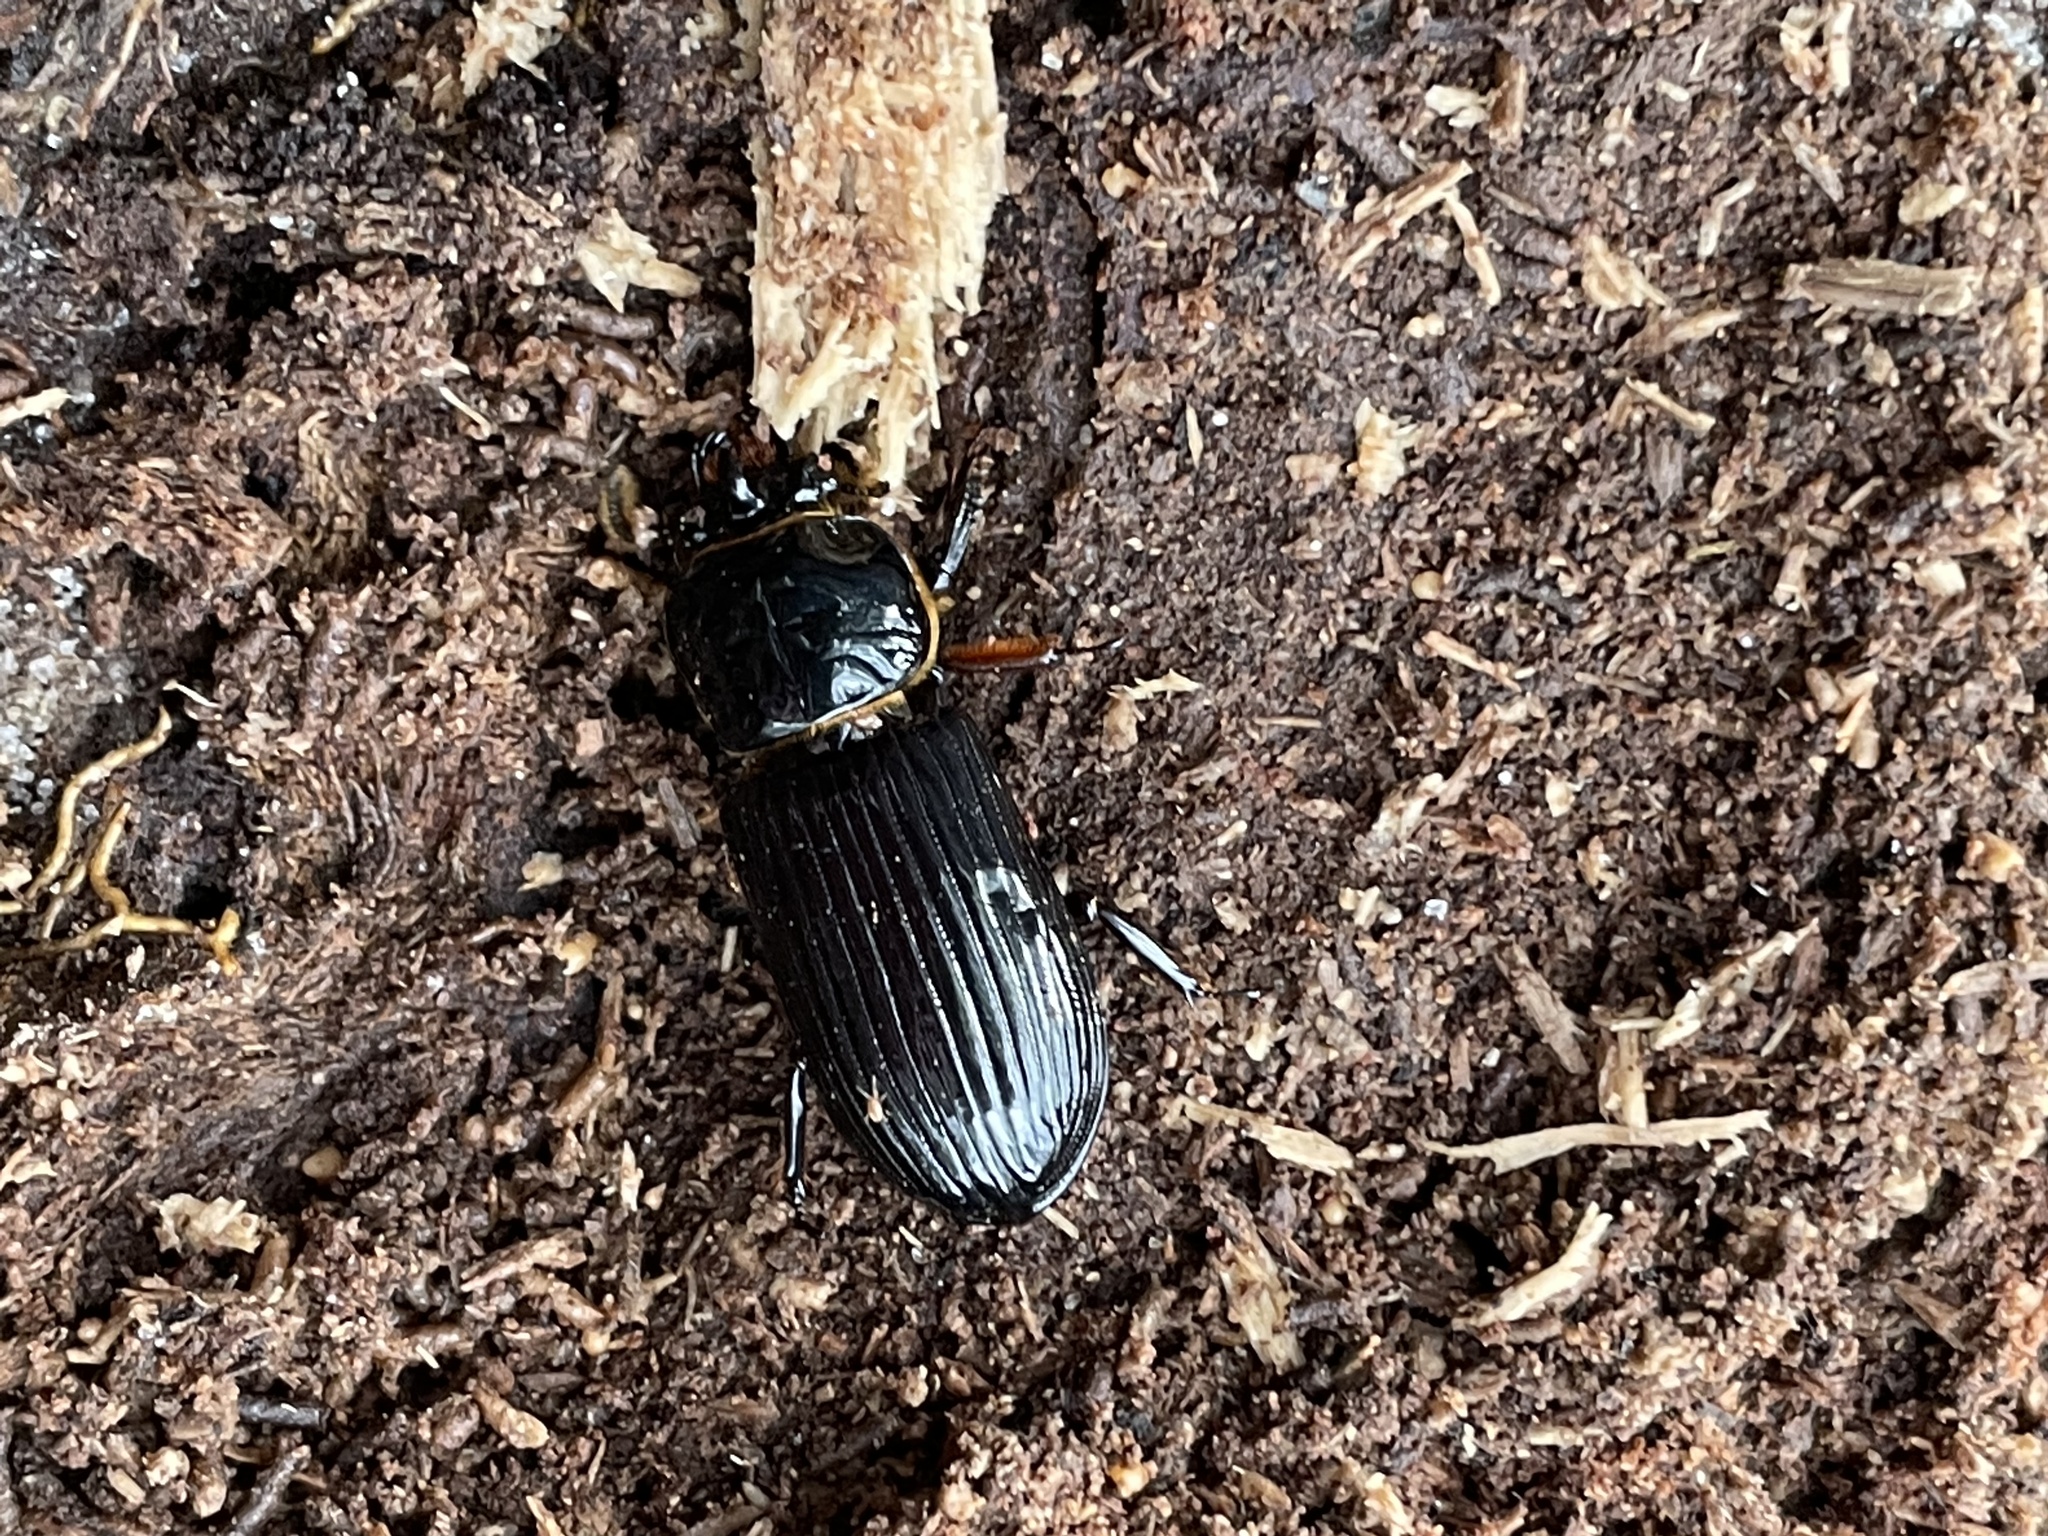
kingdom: Animalia
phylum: Arthropoda
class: Insecta
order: Coleoptera
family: Passalidae
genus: Odontotaenius
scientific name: Odontotaenius disjunctus
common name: Patent leather beetle
